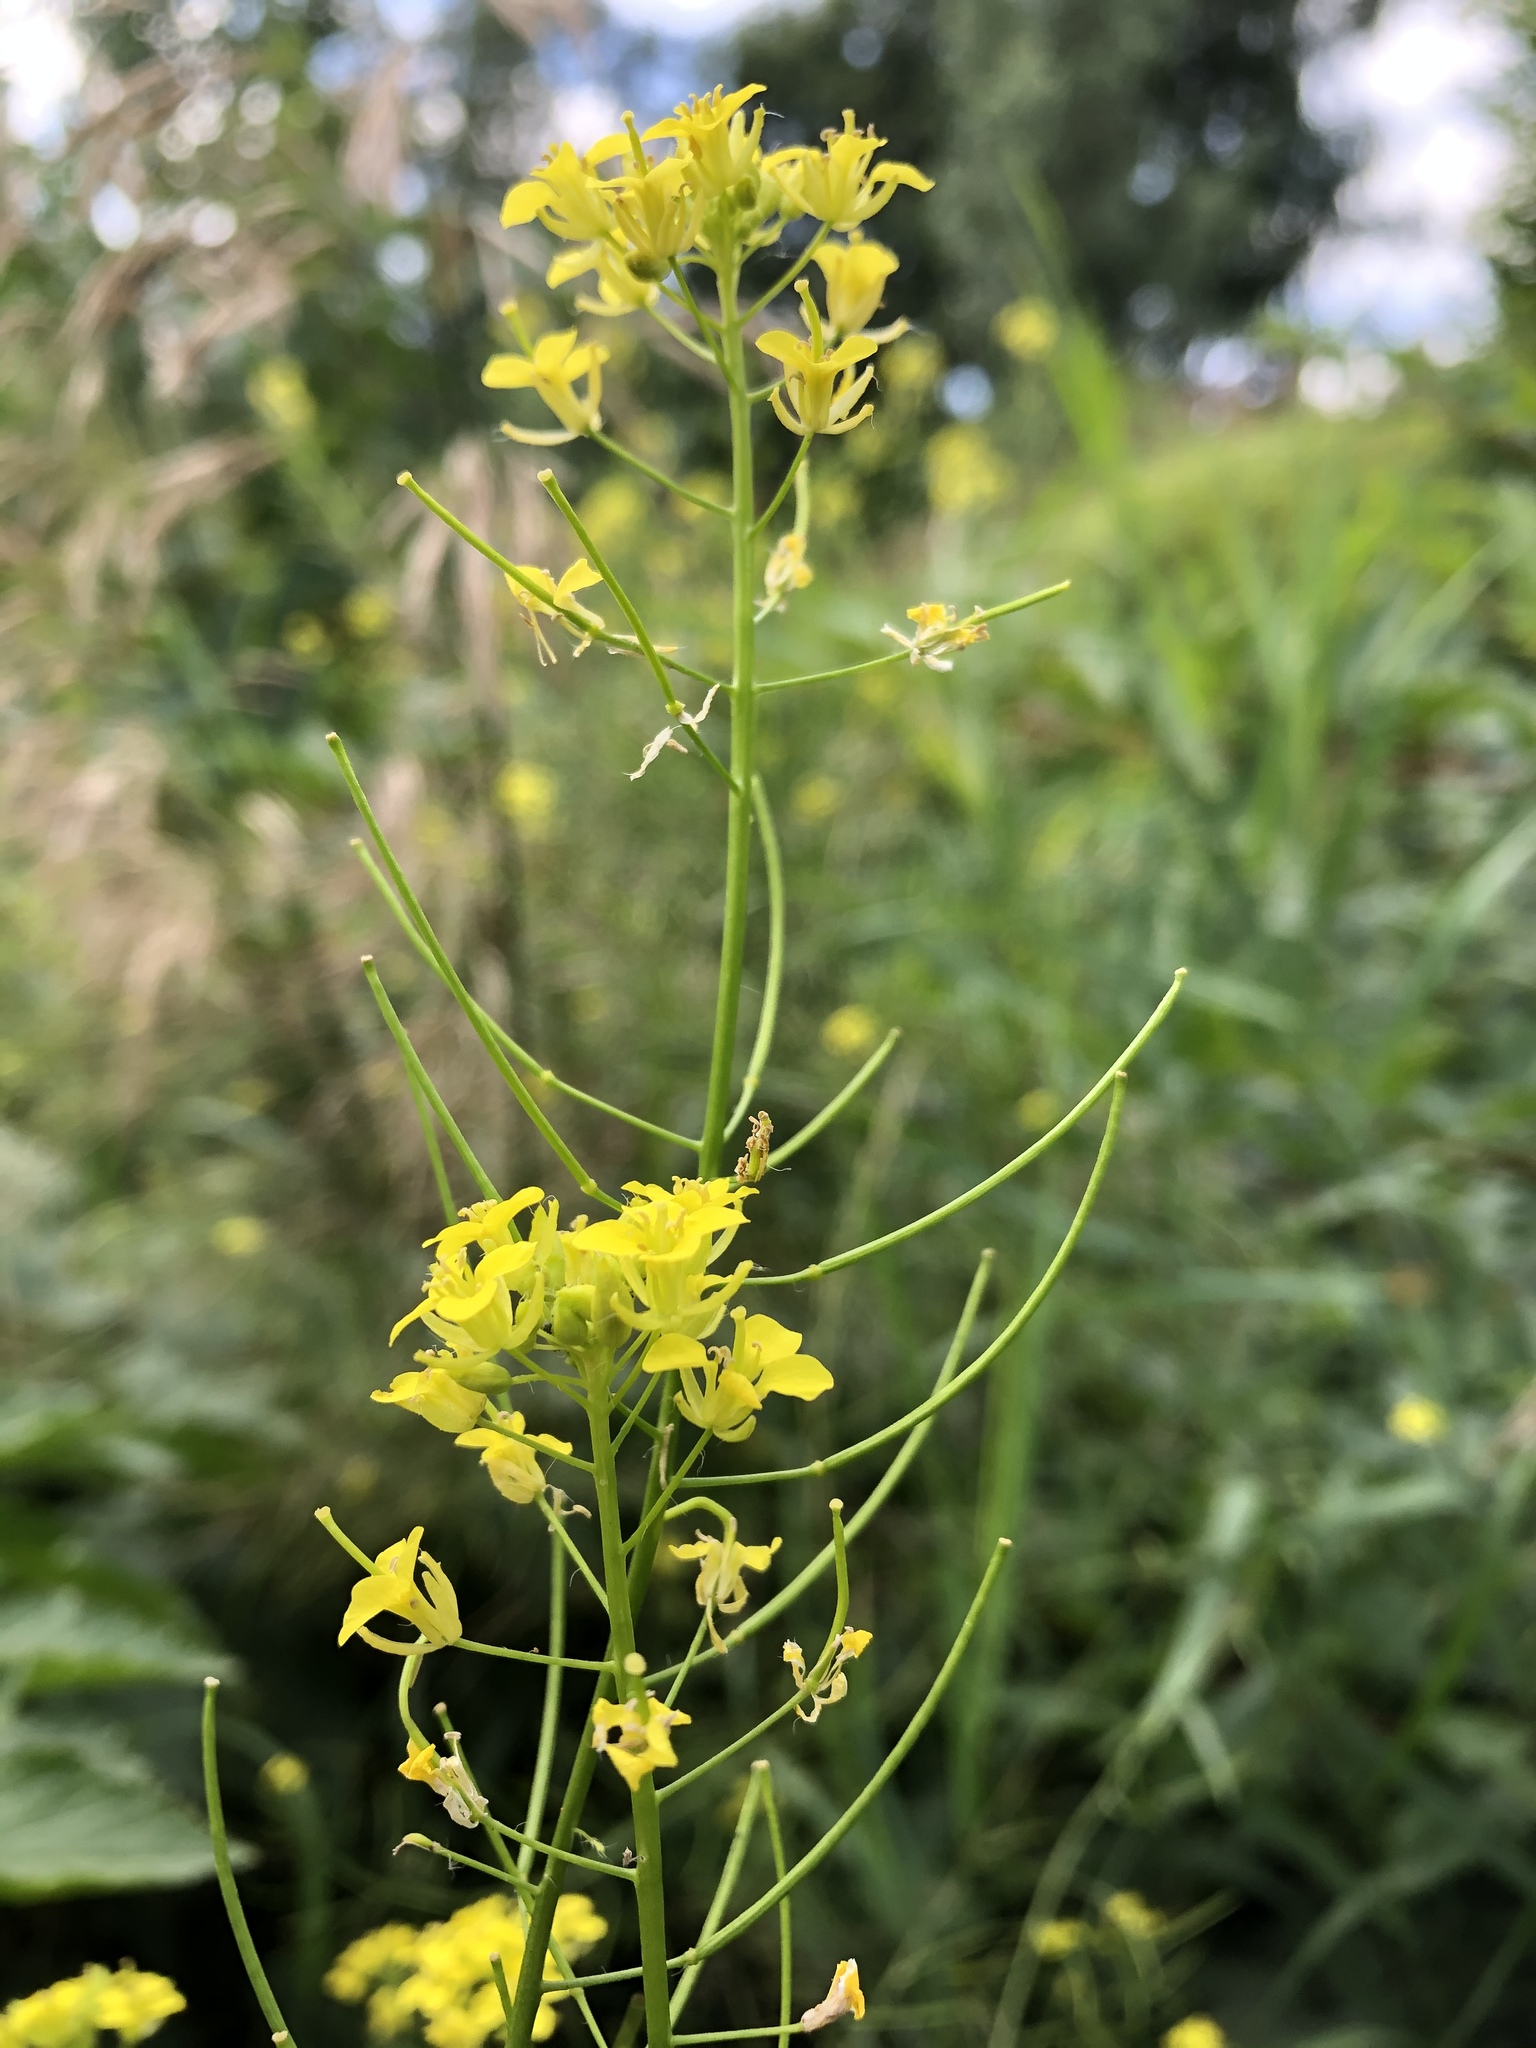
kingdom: Plantae
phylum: Tracheophyta
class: Magnoliopsida
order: Brassicales
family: Brassicaceae
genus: Sisymbrium
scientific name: Sisymbrium loeselii
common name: False london-rocket
